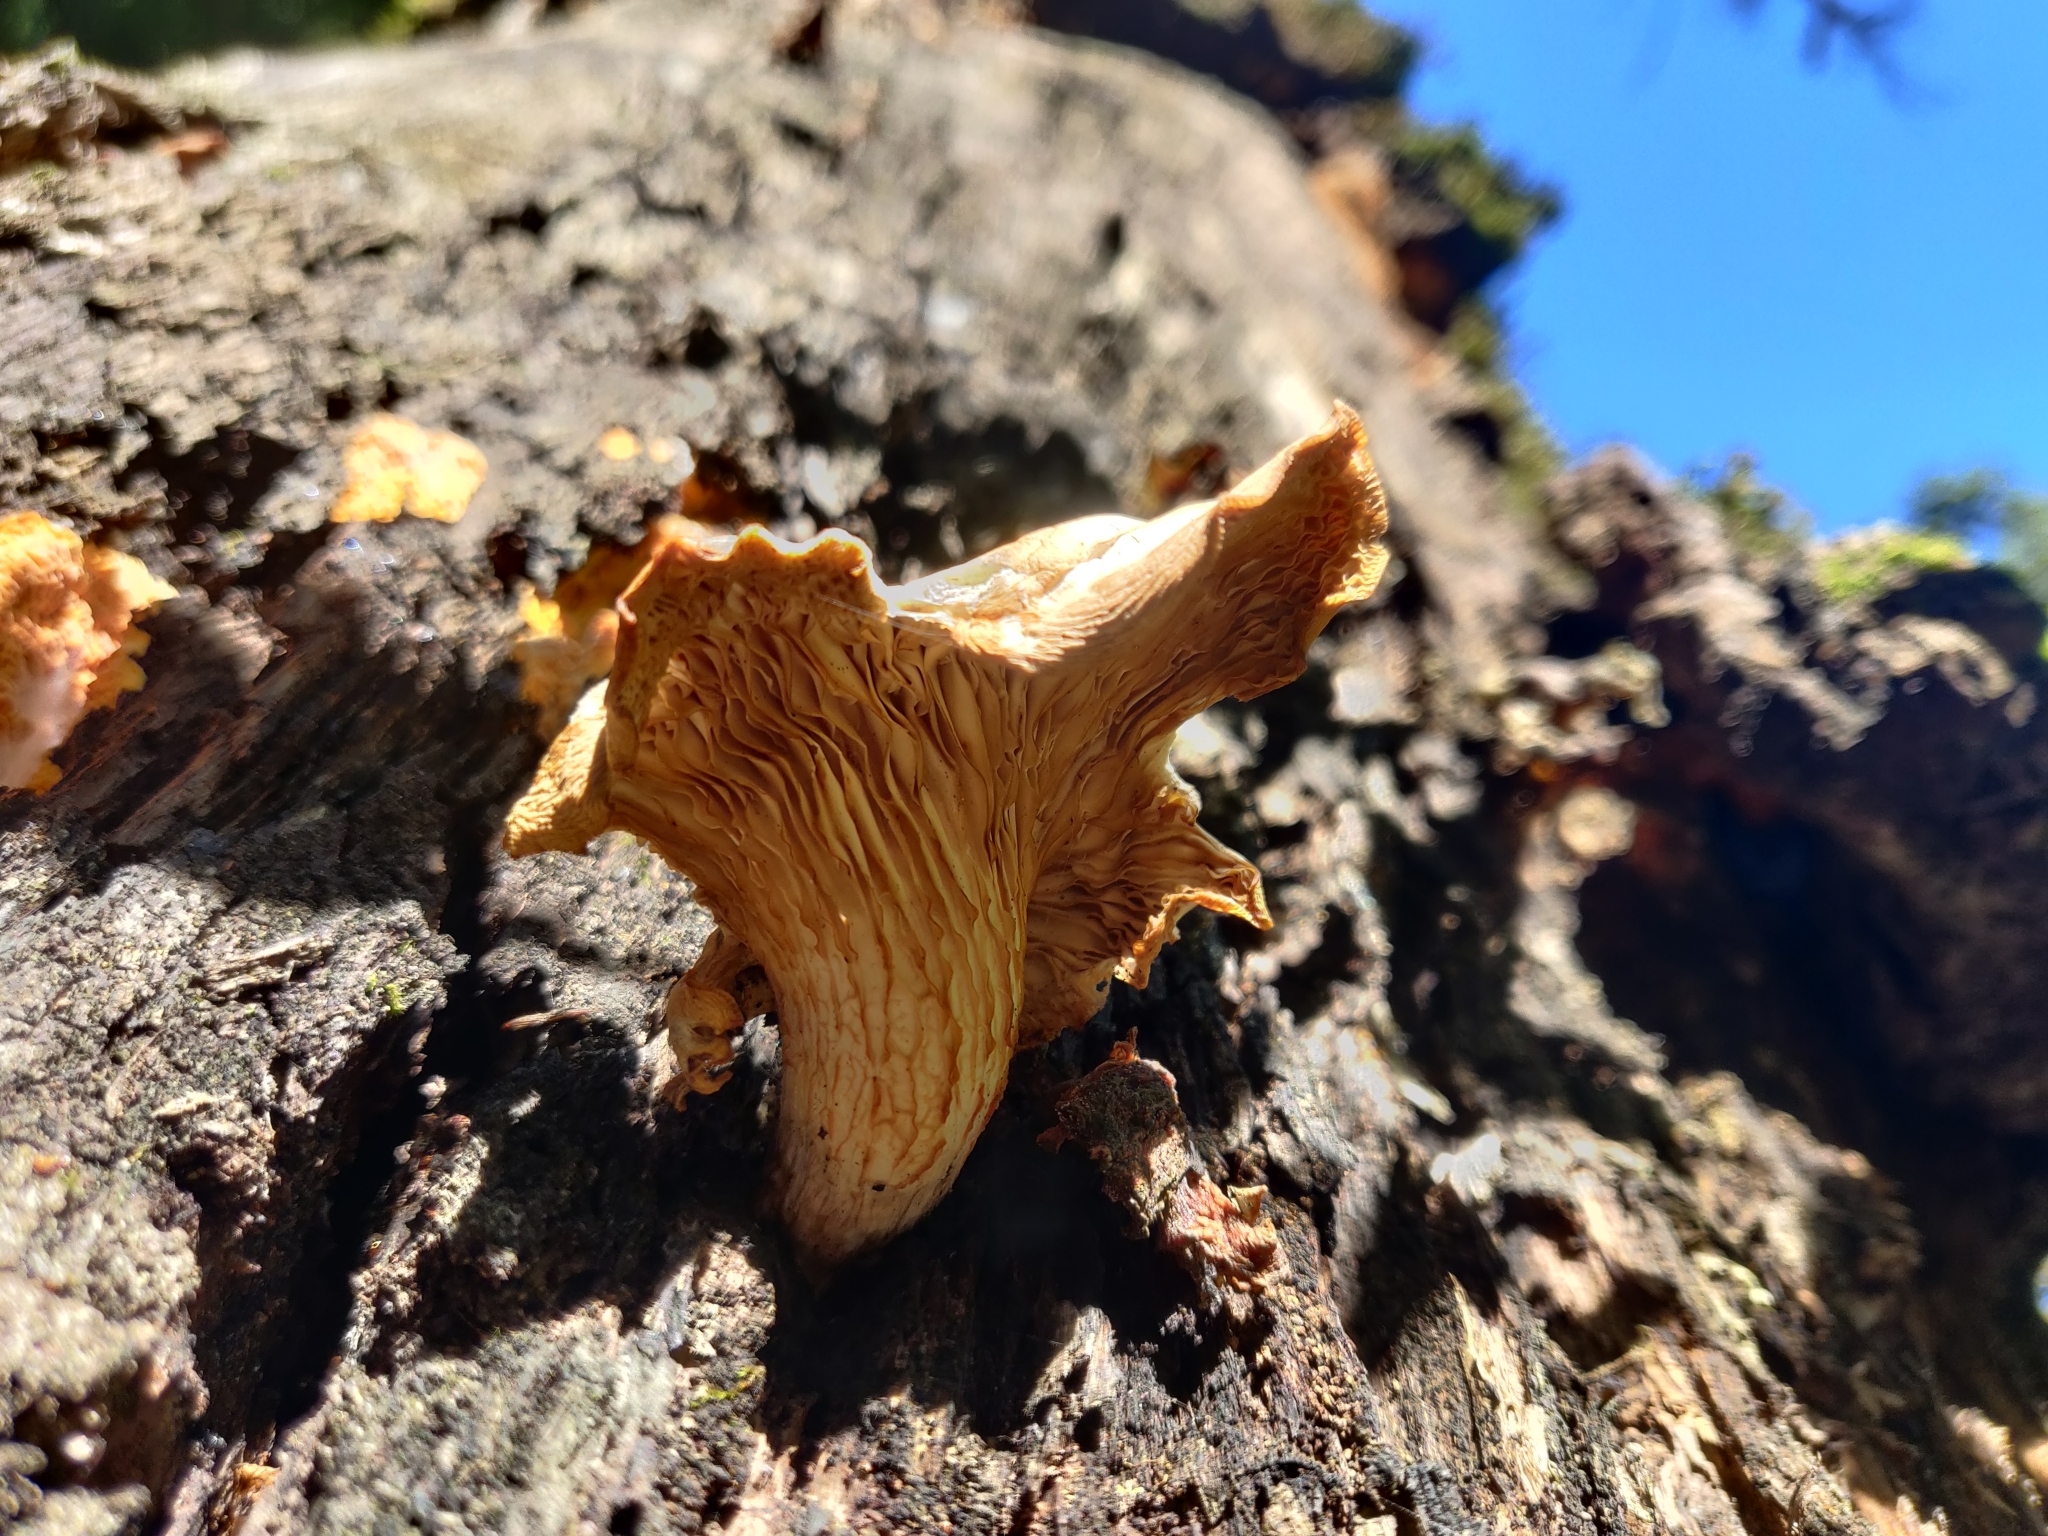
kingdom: Fungi
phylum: Basidiomycota
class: Agaricomycetes
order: Agaricales
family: Pleurotaceae
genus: Pleurotus
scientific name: Pleurotus ostreatus
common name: Oyster mushroom
